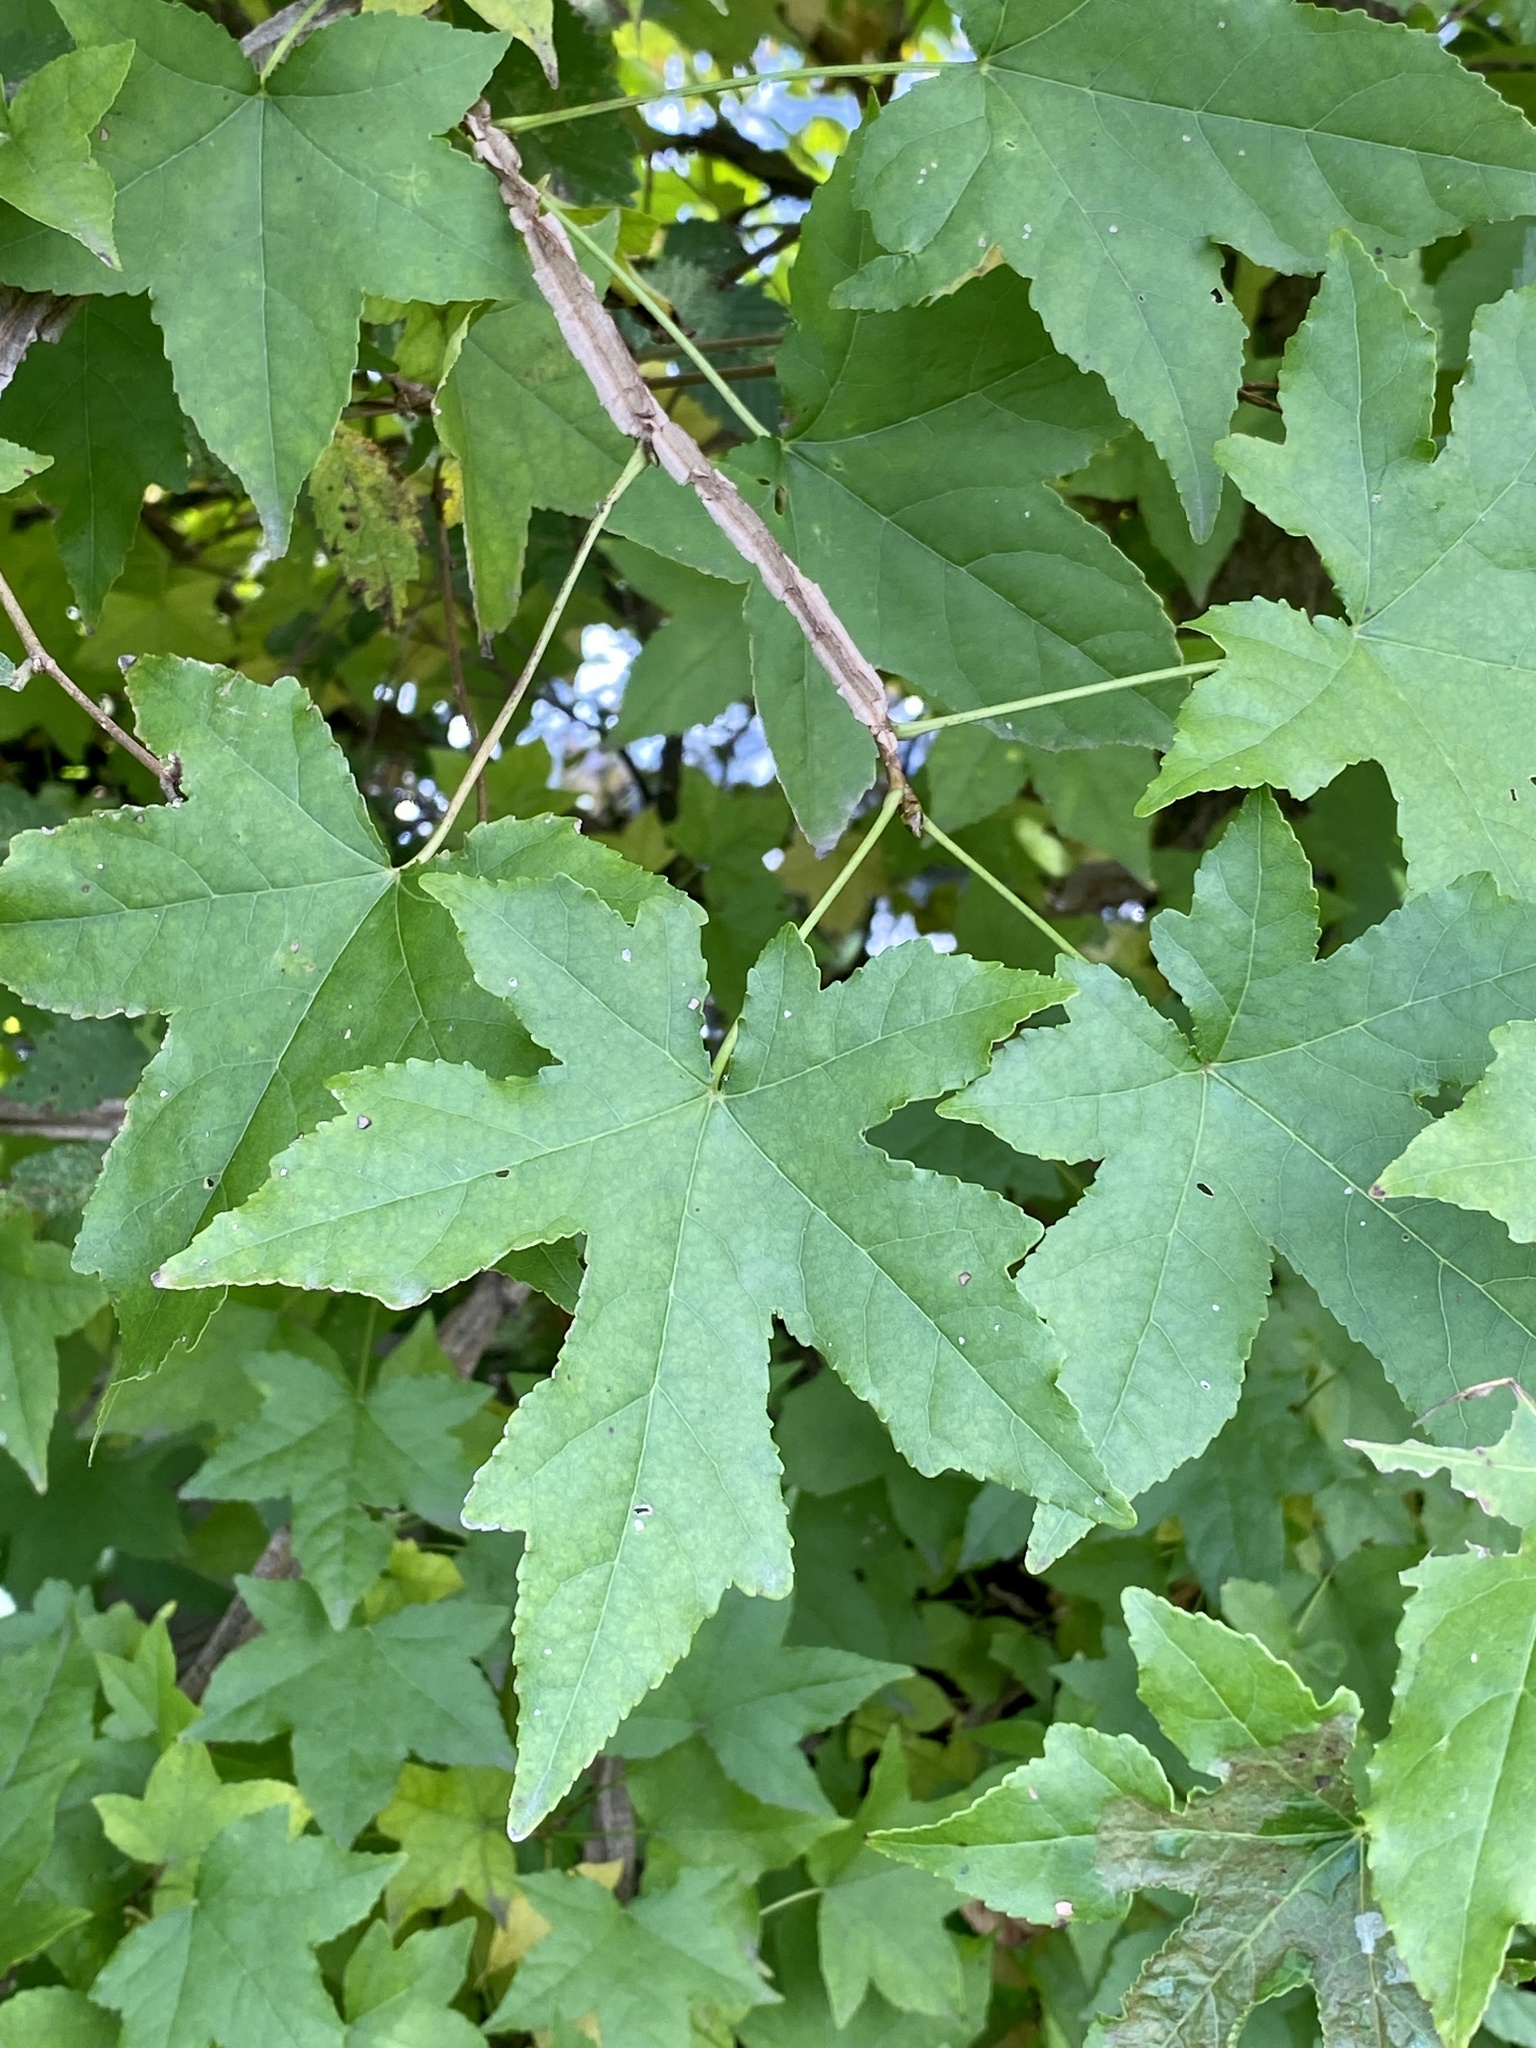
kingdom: Plantae
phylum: Tracheophyta
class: Magnoliopsida
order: Saxifragales
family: Altingiaceae
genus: Liquidambar
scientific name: Liquidambar styraciflua
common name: Sweet gum
